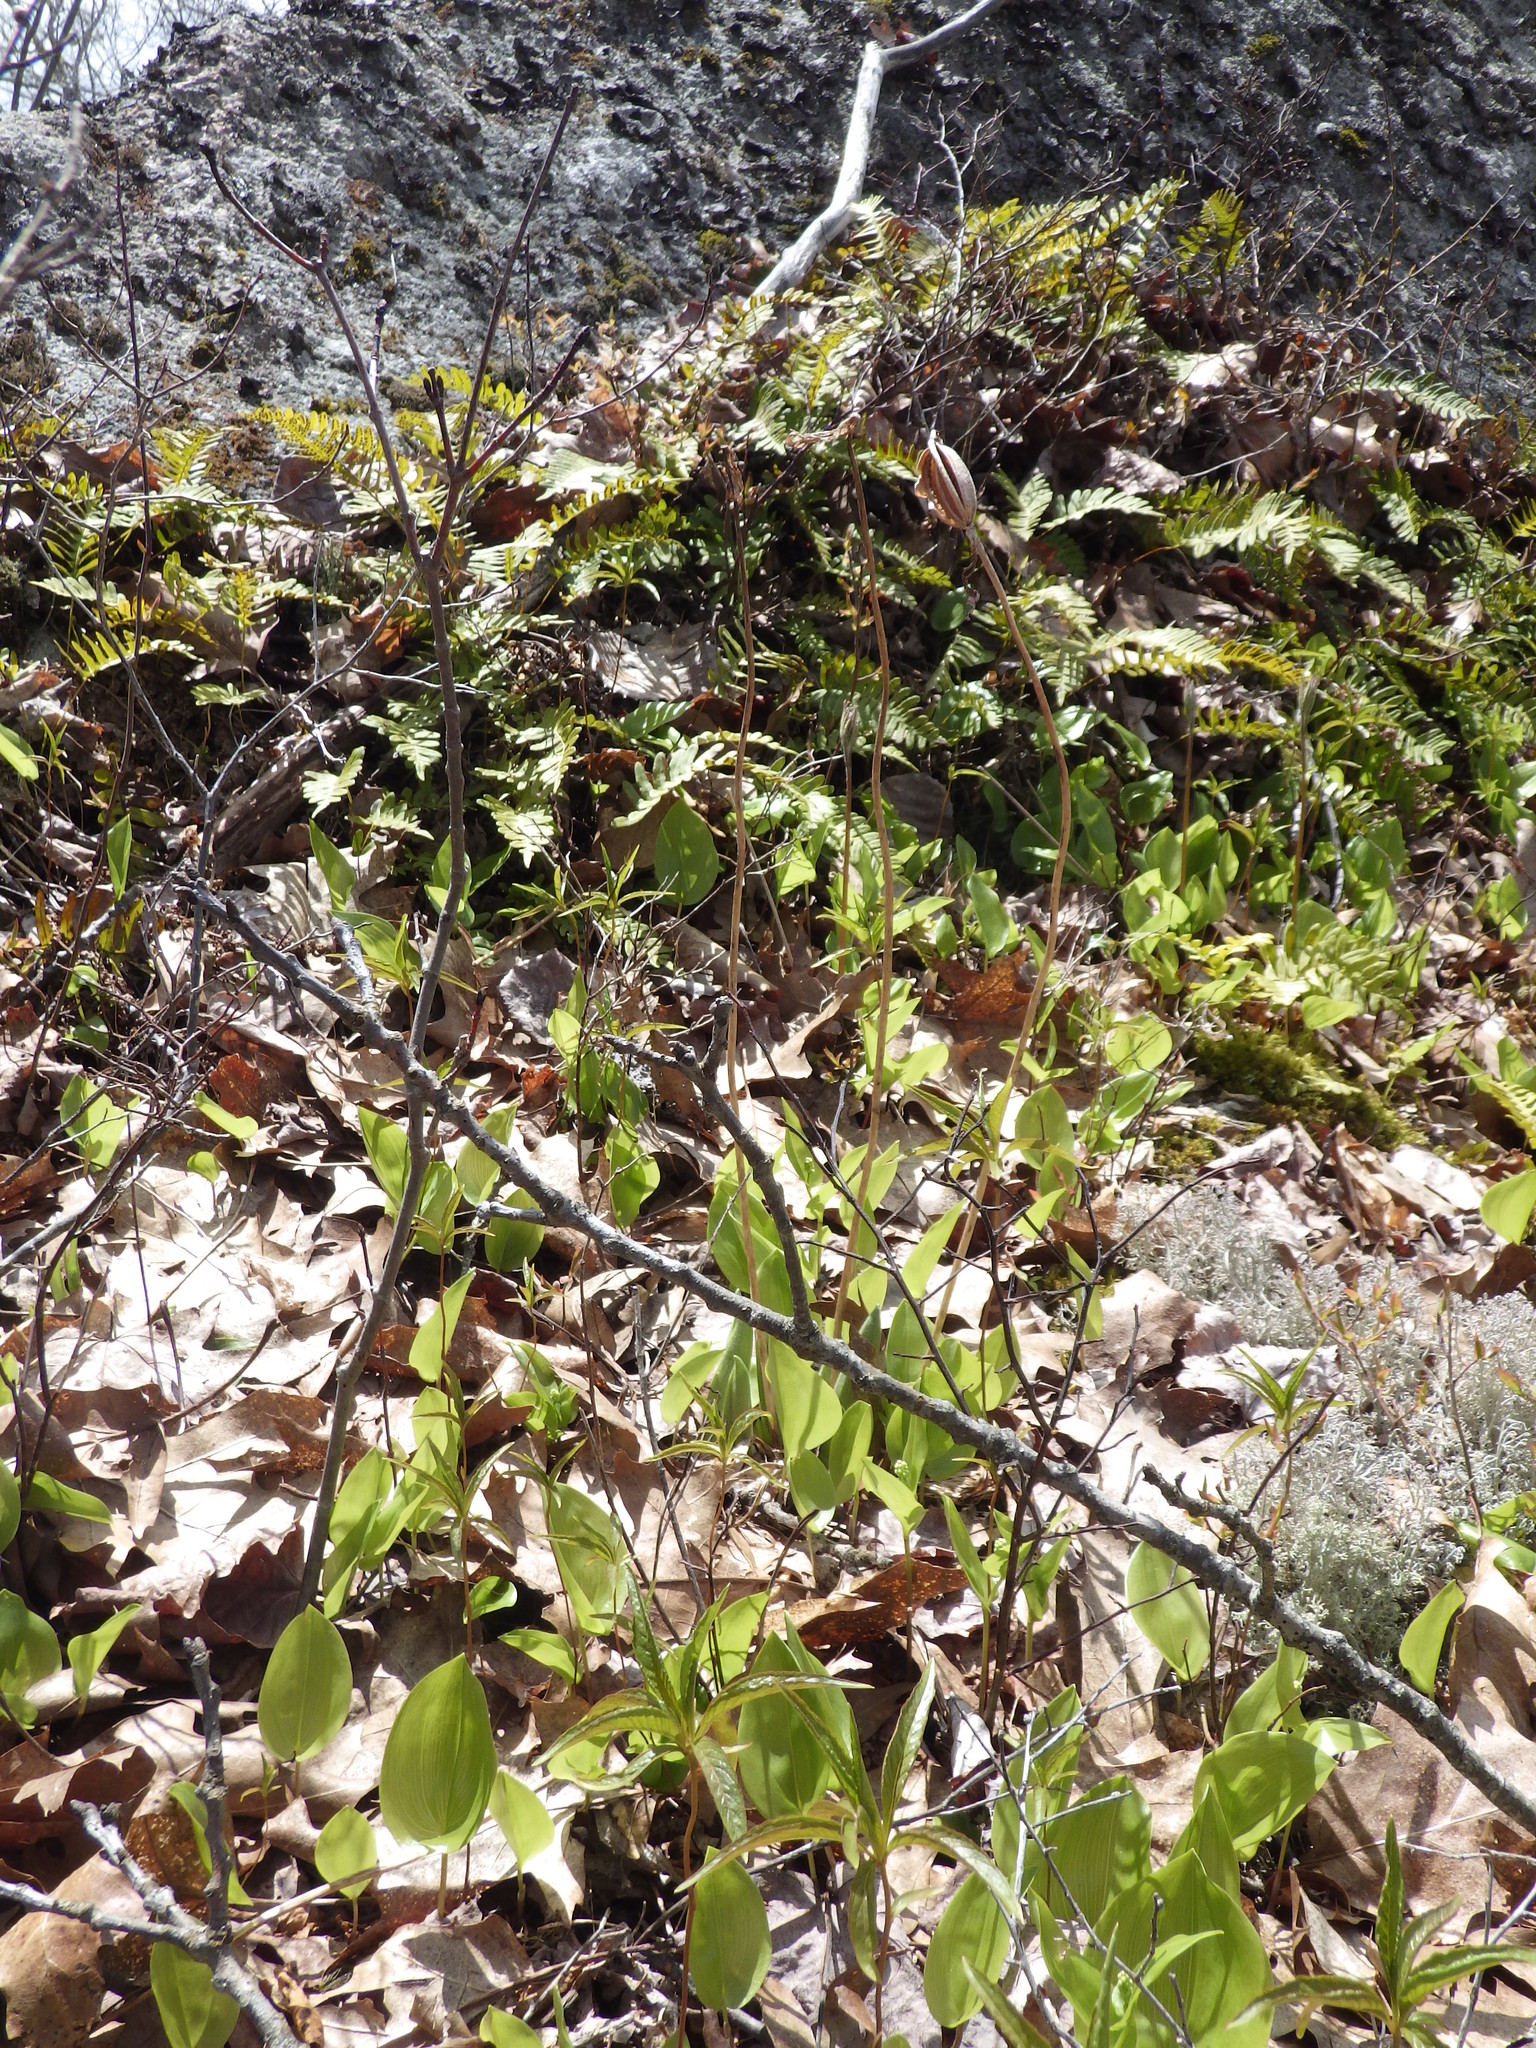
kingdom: Plantae
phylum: Tracheophyta
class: Liliopsida
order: Asparagales
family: Orchidaceae
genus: Cypripedium
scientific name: Cypripedium acaule
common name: Pink lady's-slipper
